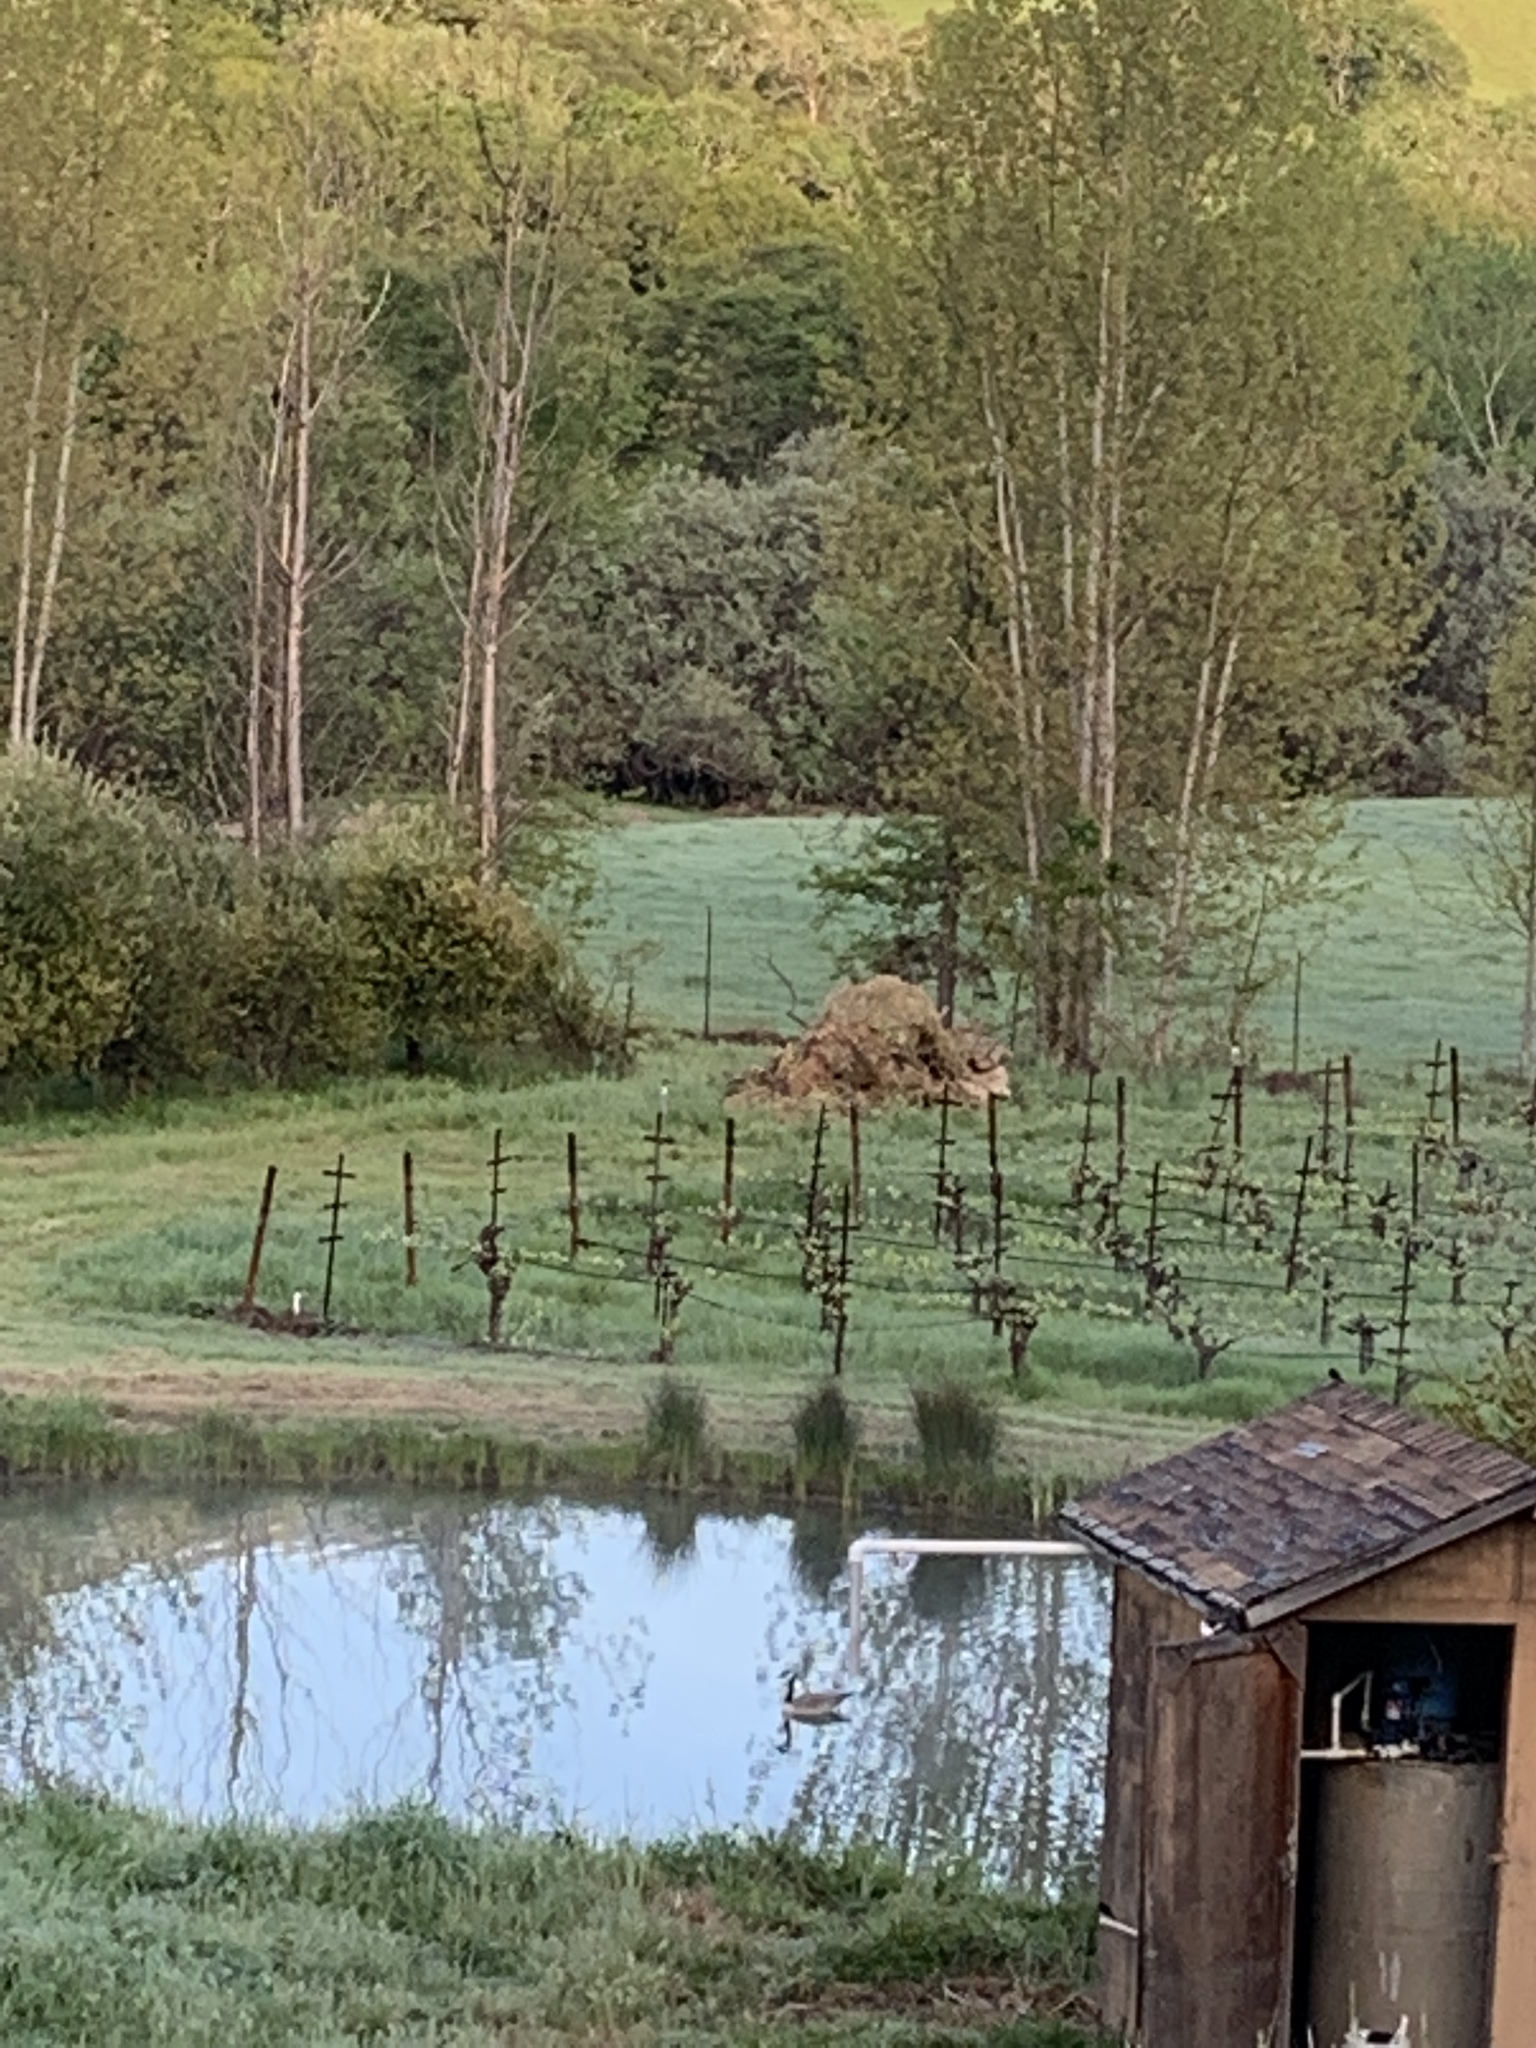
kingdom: Animalia
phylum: Chordata
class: Aves
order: Anseriformes
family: Anatidae
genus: Branta
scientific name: Branta canadensis
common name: Canada goose
